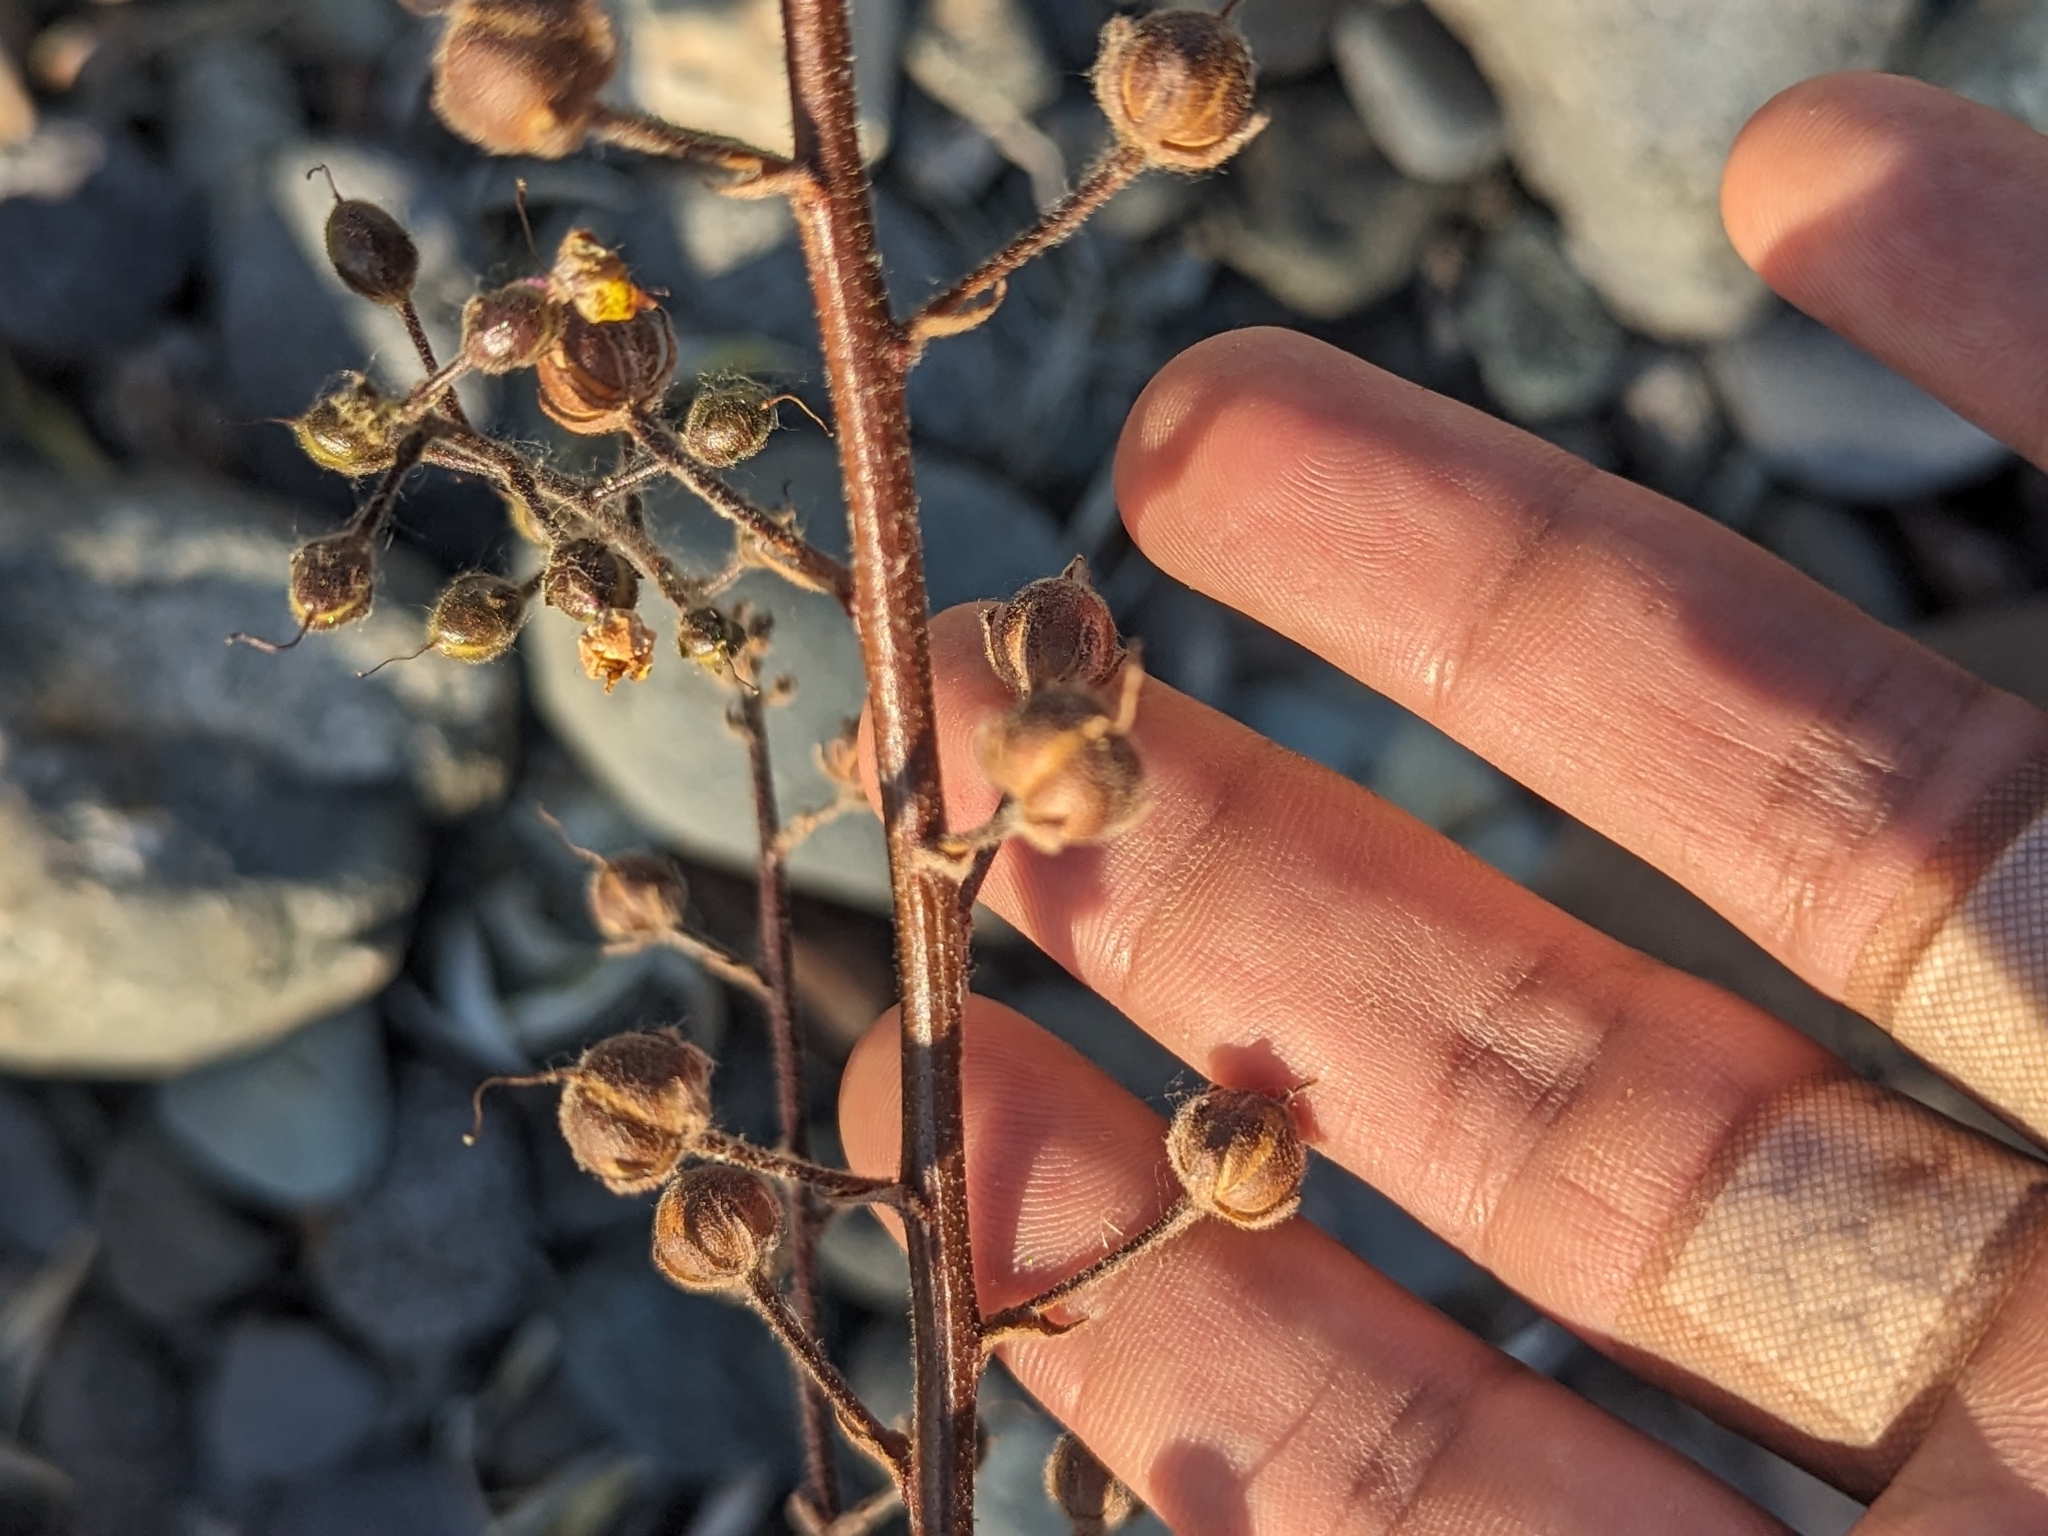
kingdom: Plantae
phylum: Tracheophyta
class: Magnoliopsida
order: Lamiales
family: Scrophulariaceae
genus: Verbascum
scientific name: Verbascum blattaria
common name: Moth mullein
